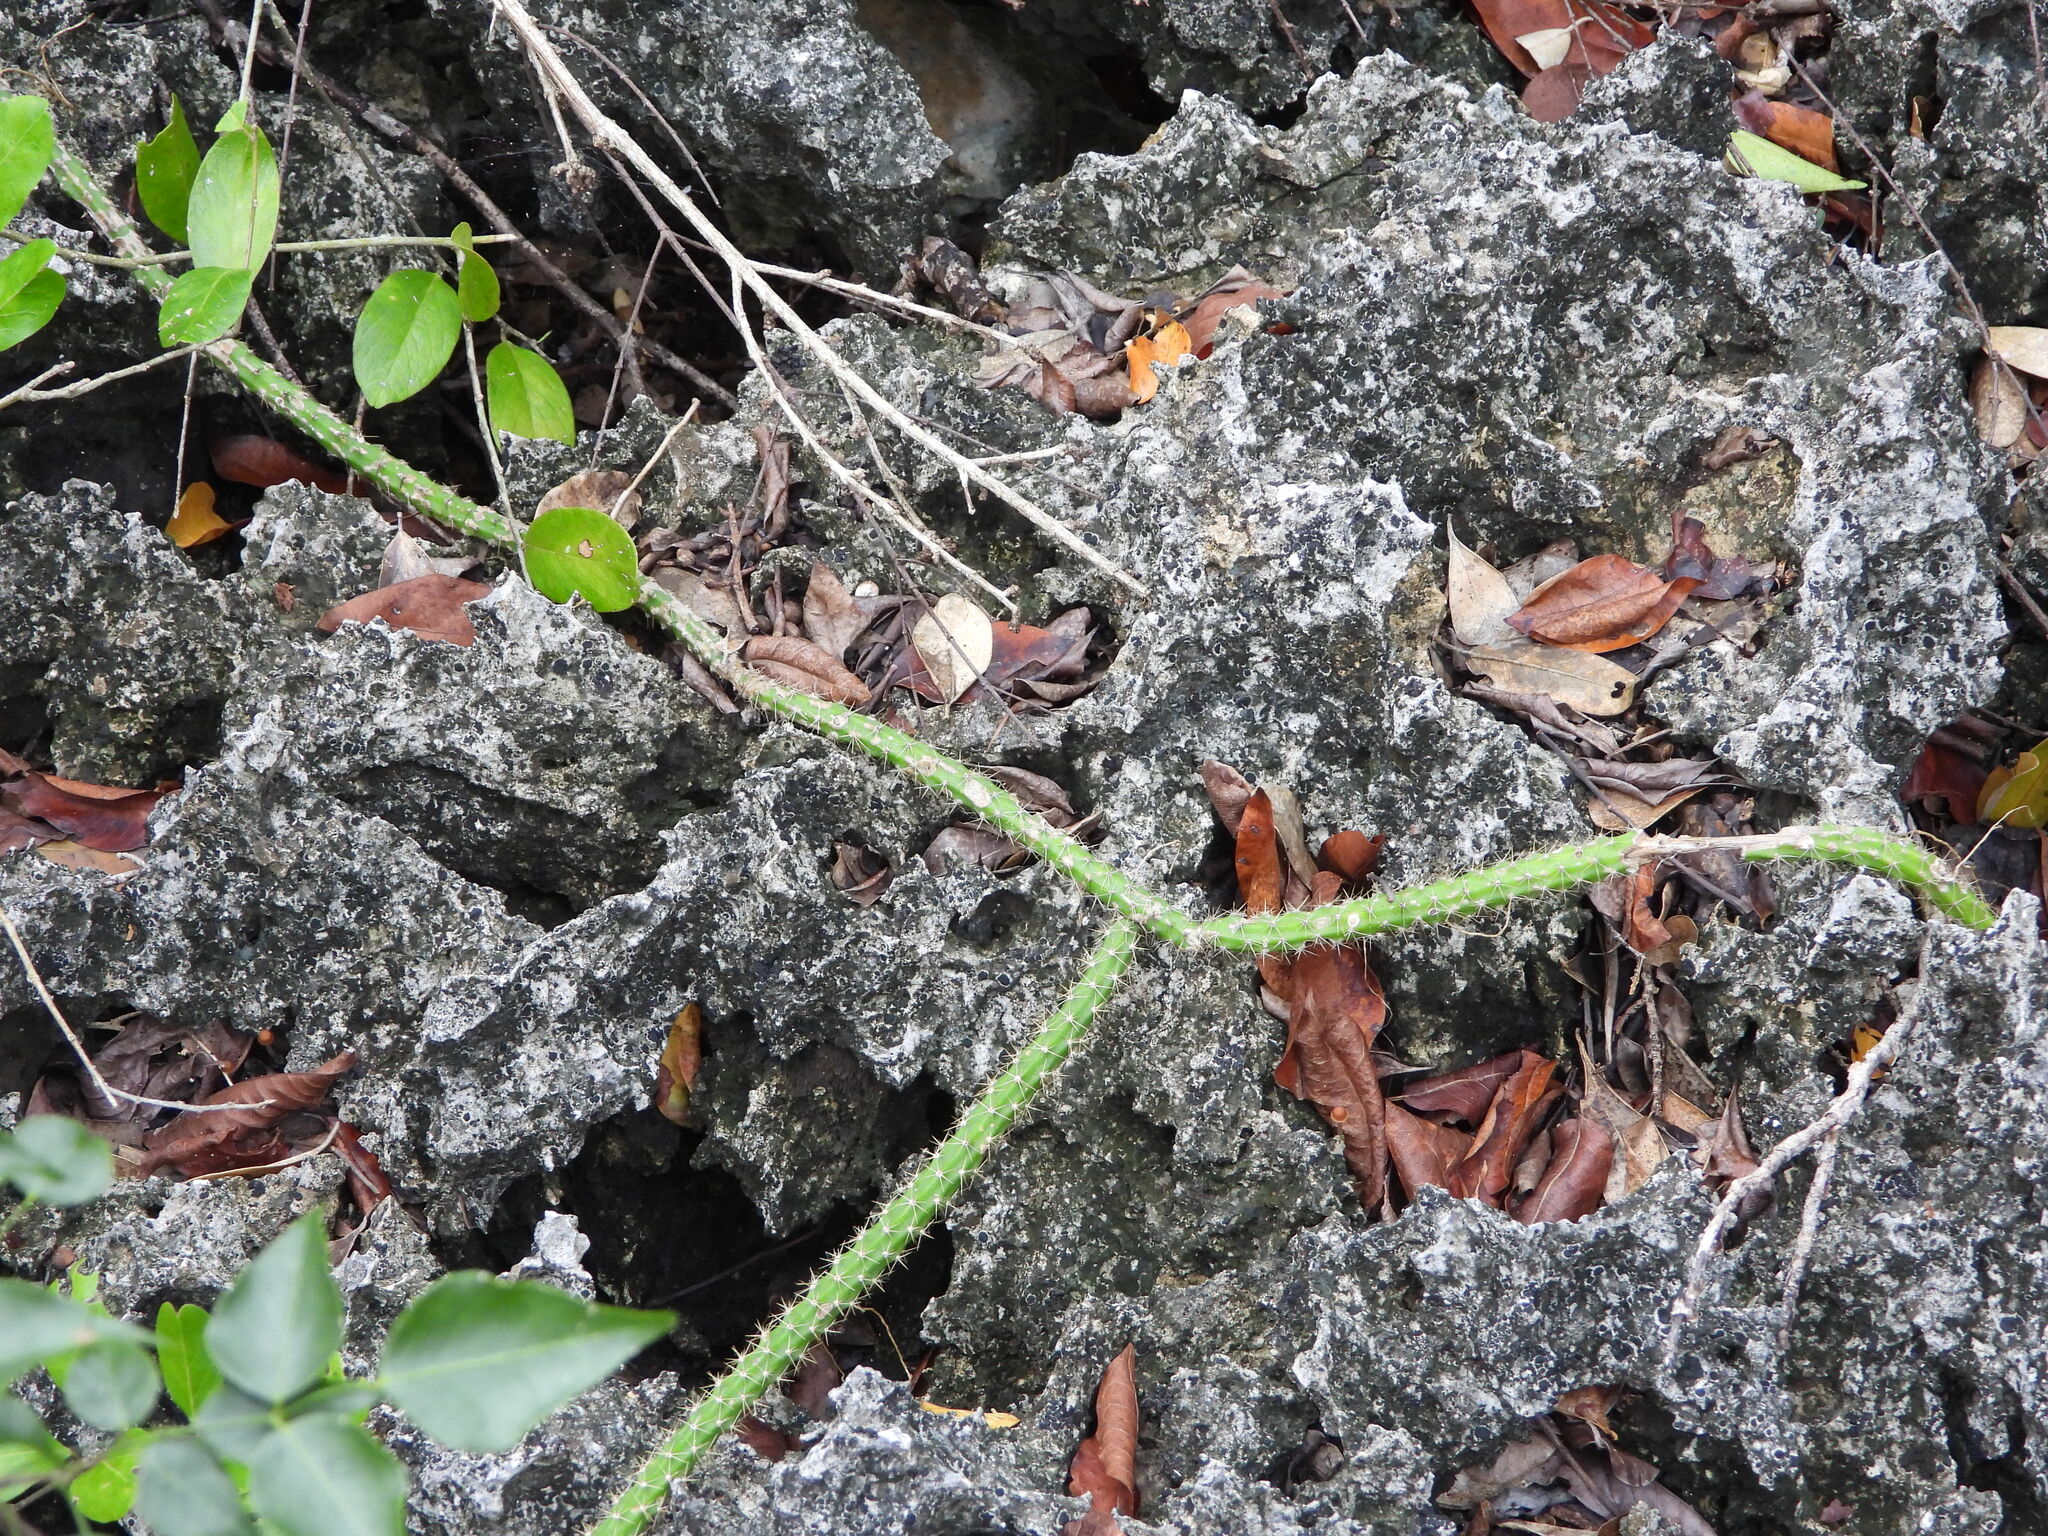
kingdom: Plantae
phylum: Tracheophyta
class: Magnoliopsida
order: Caryophyllales
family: Cactaceae
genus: Selenicereus
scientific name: Selenicereus grandiflorus
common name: Queen of the night
